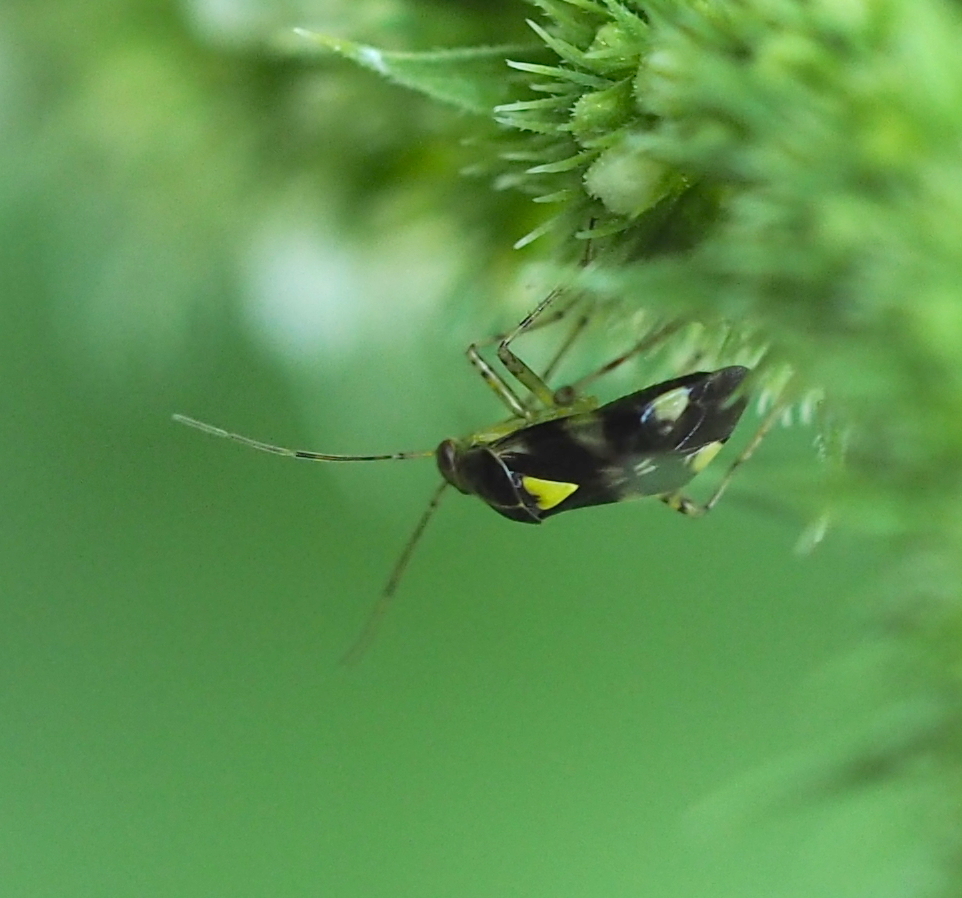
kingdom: Animalia
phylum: Arthropoda
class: Insecta
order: Hemiptera
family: Miridae
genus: Liocoris
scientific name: Liocoris tripustulatus
